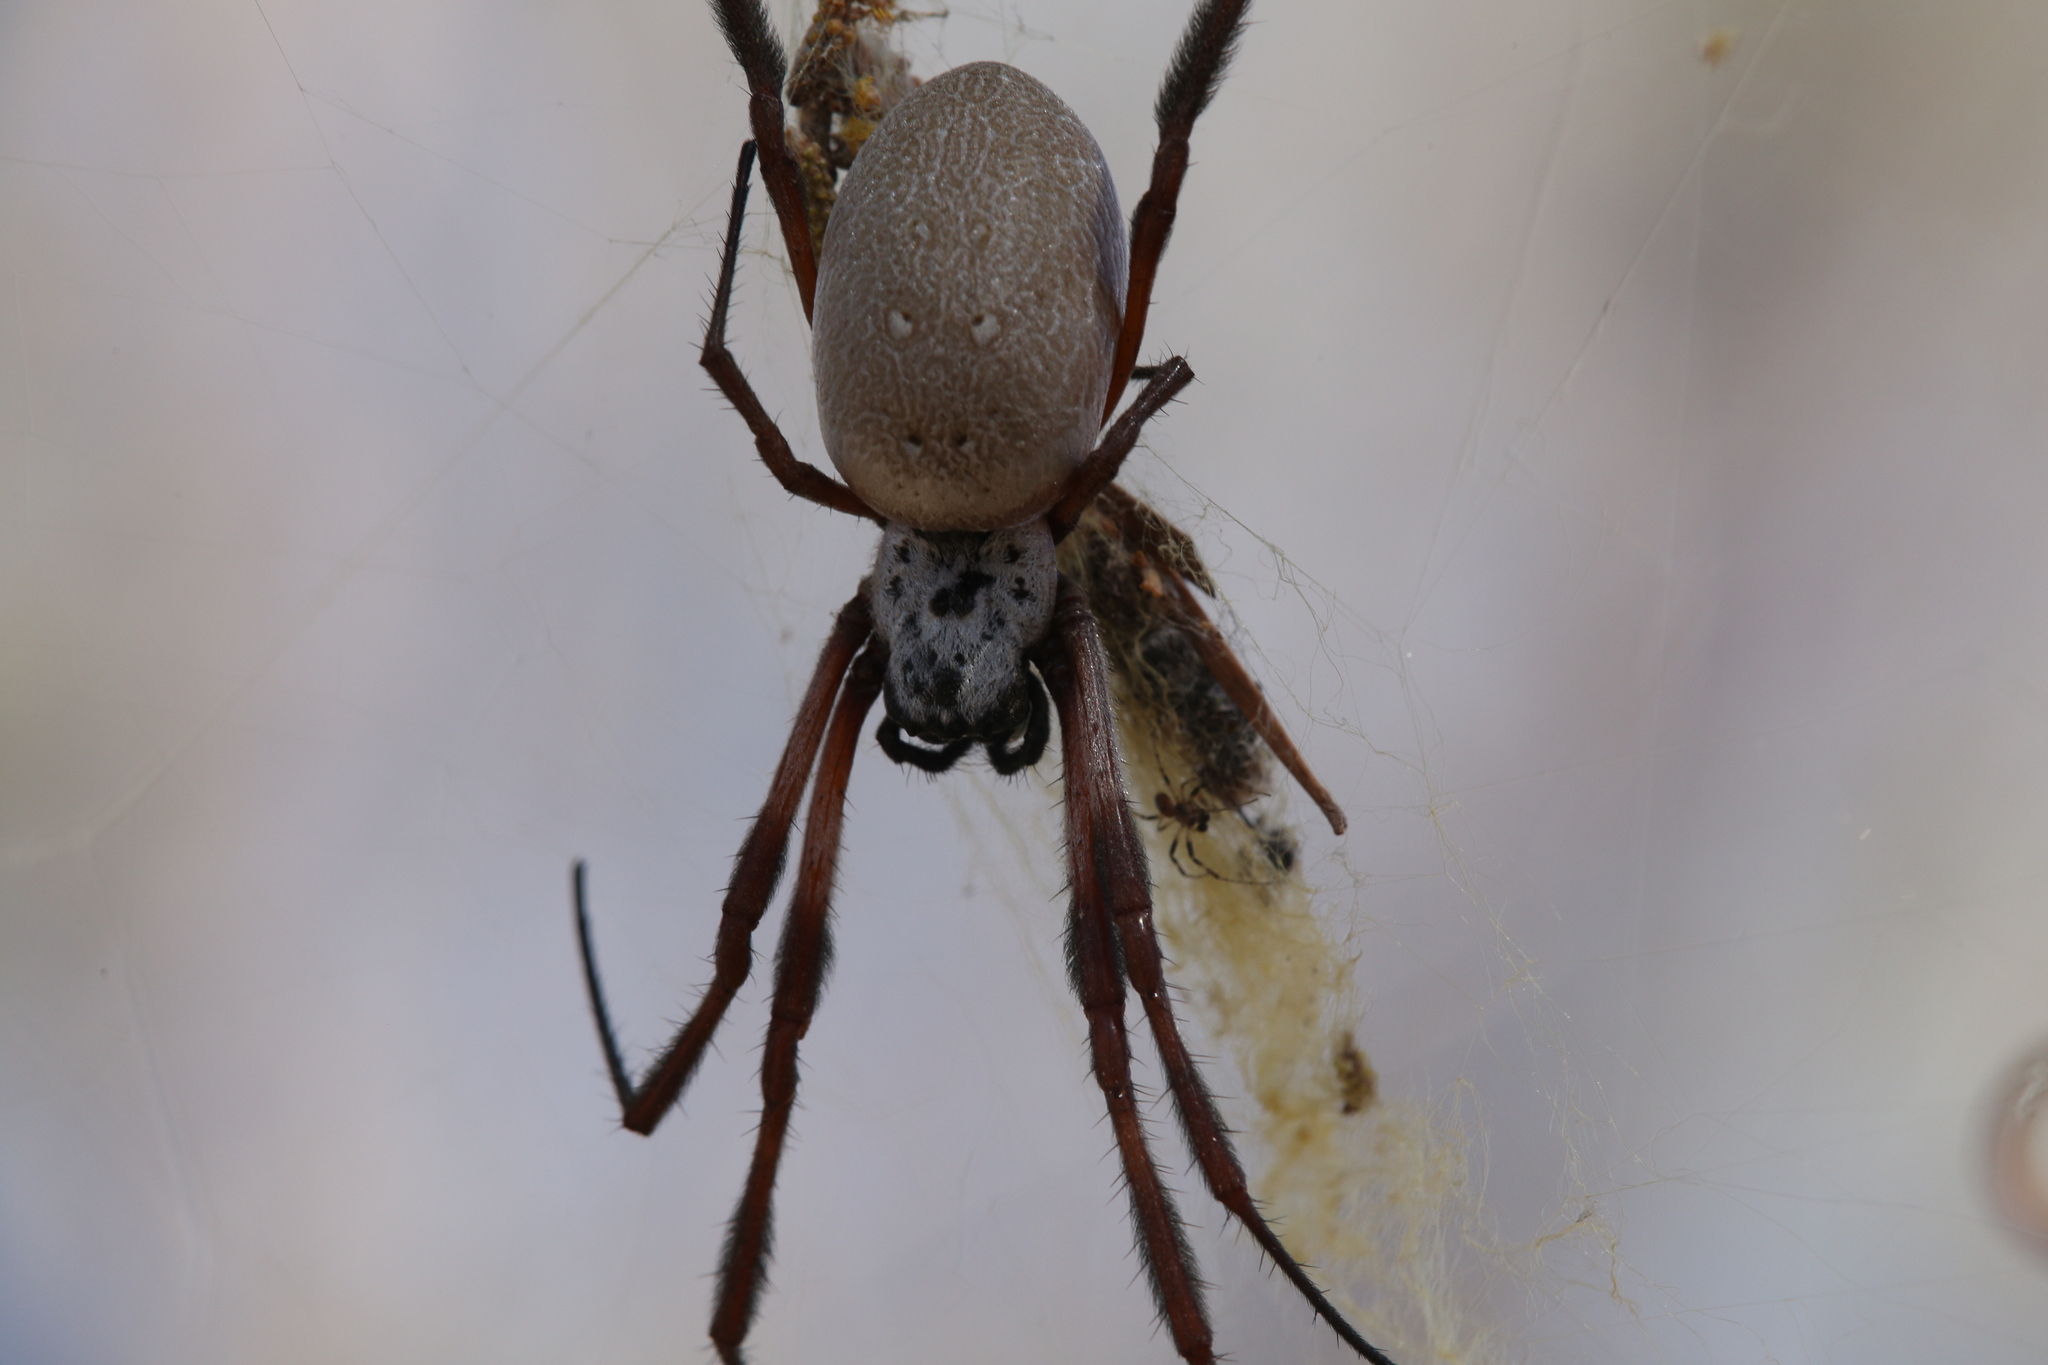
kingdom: Animalia
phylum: Arthropoda
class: Arachnida
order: Araneae
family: Araneidae
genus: Trichonephila
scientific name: Trichonephila edulis
